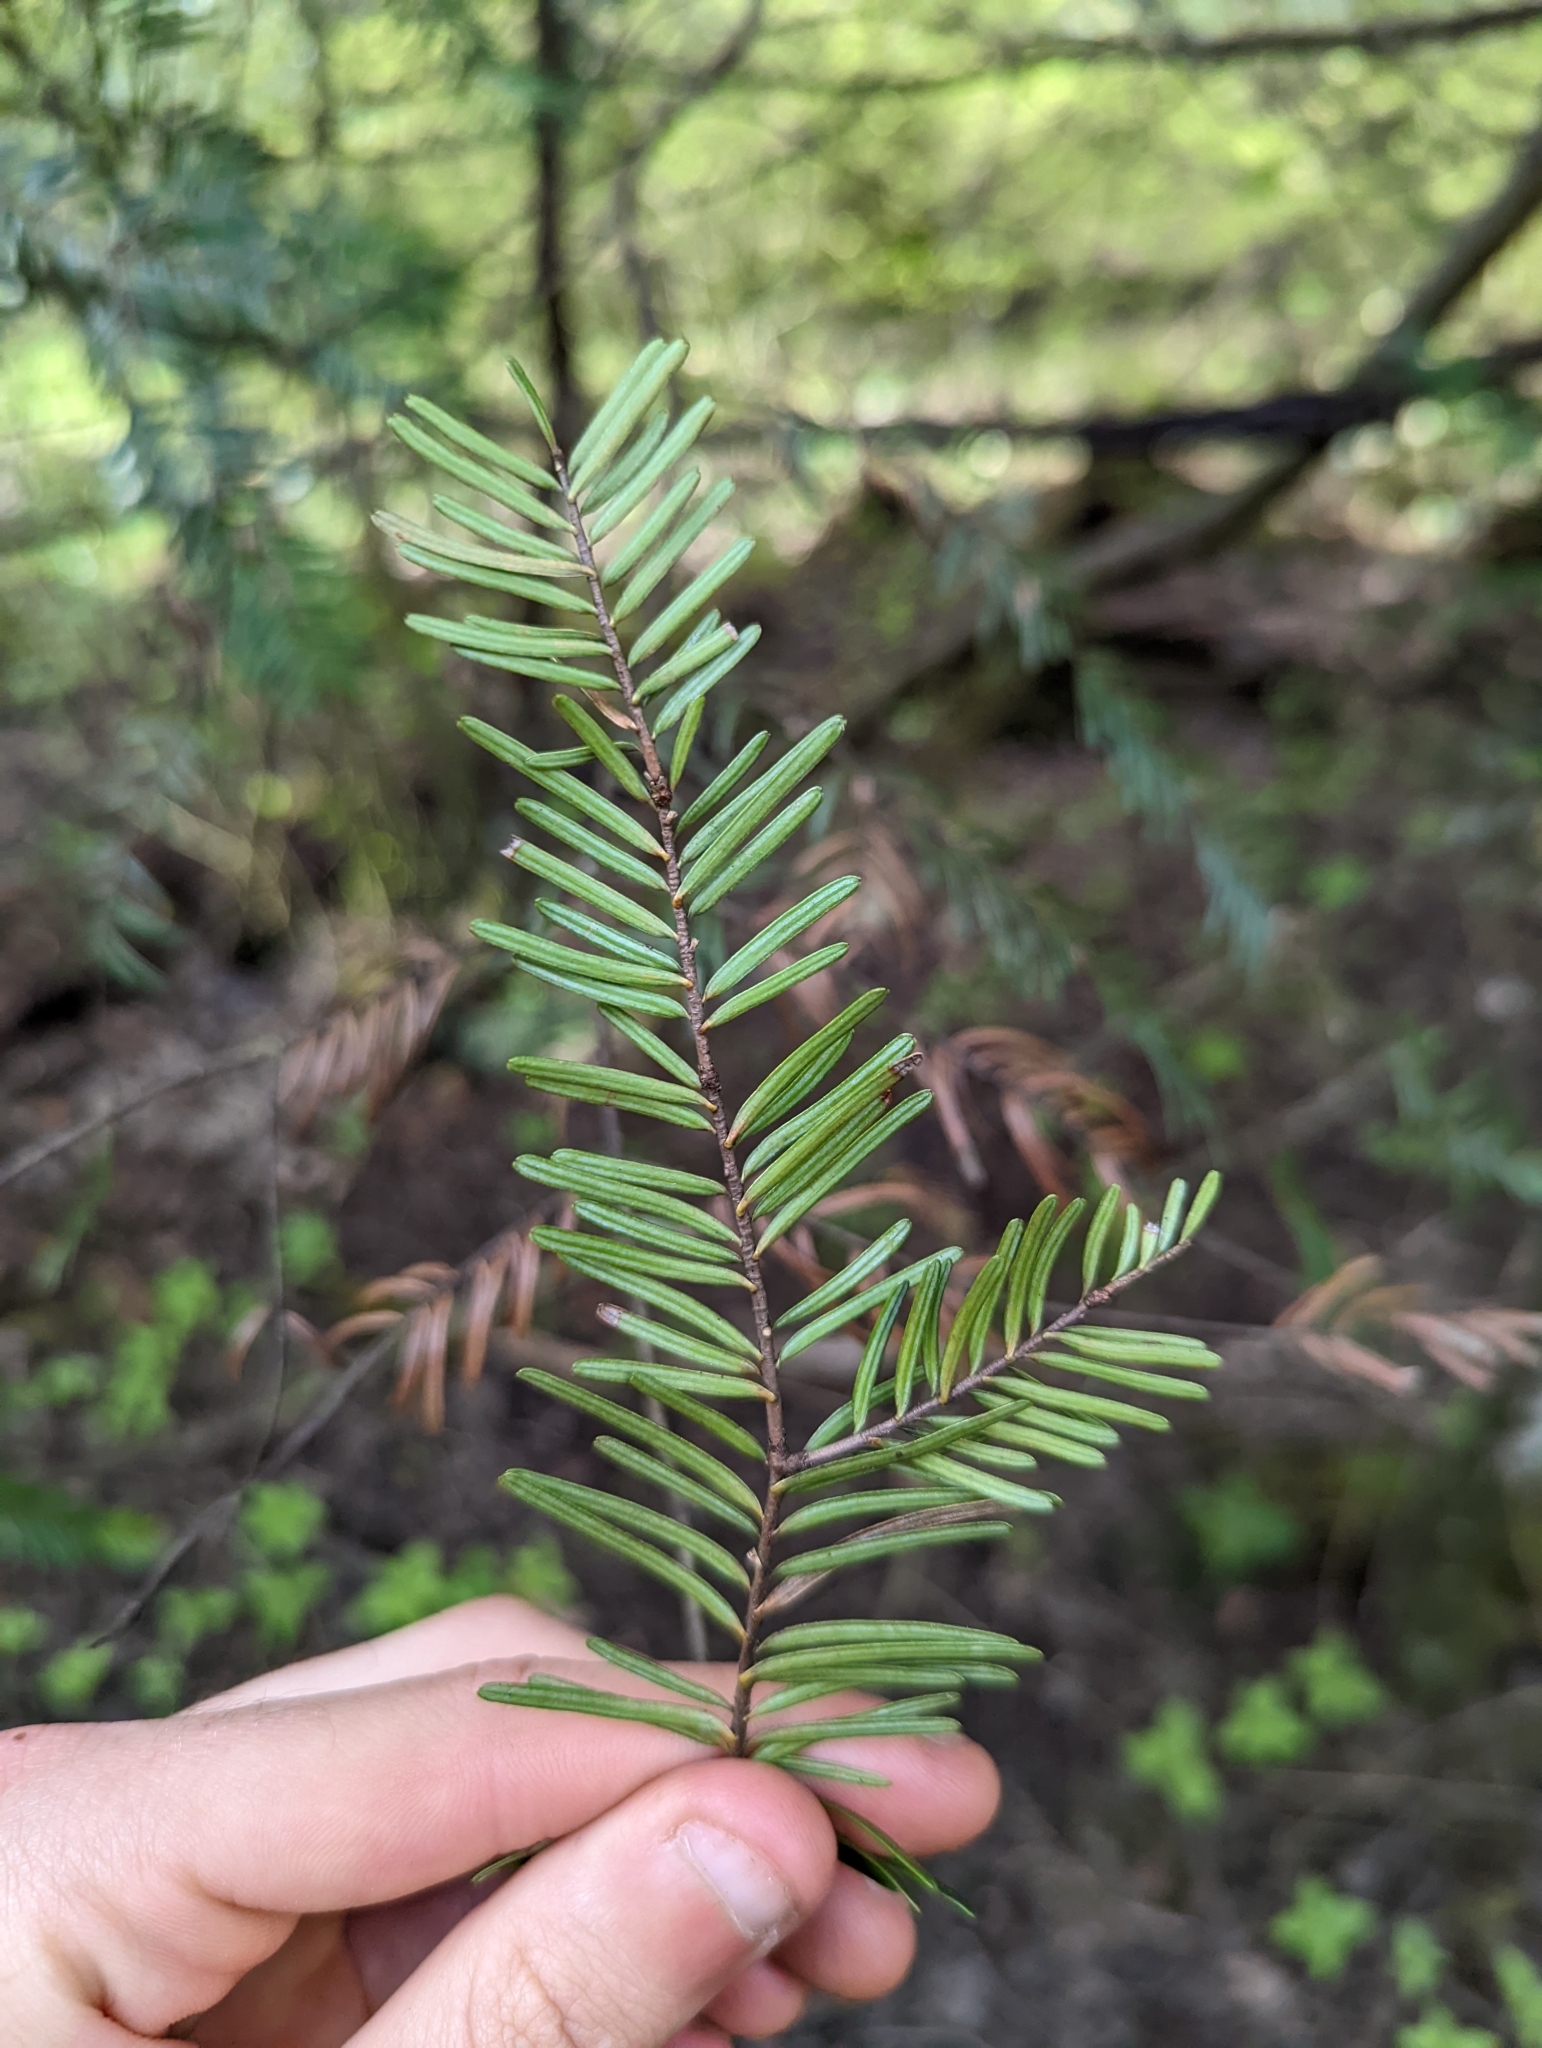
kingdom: Plantae
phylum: Tracheophyta
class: Pinopsida
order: Pinales
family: Pinaceae
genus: Abies
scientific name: Abies grandis
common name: Giant fir
